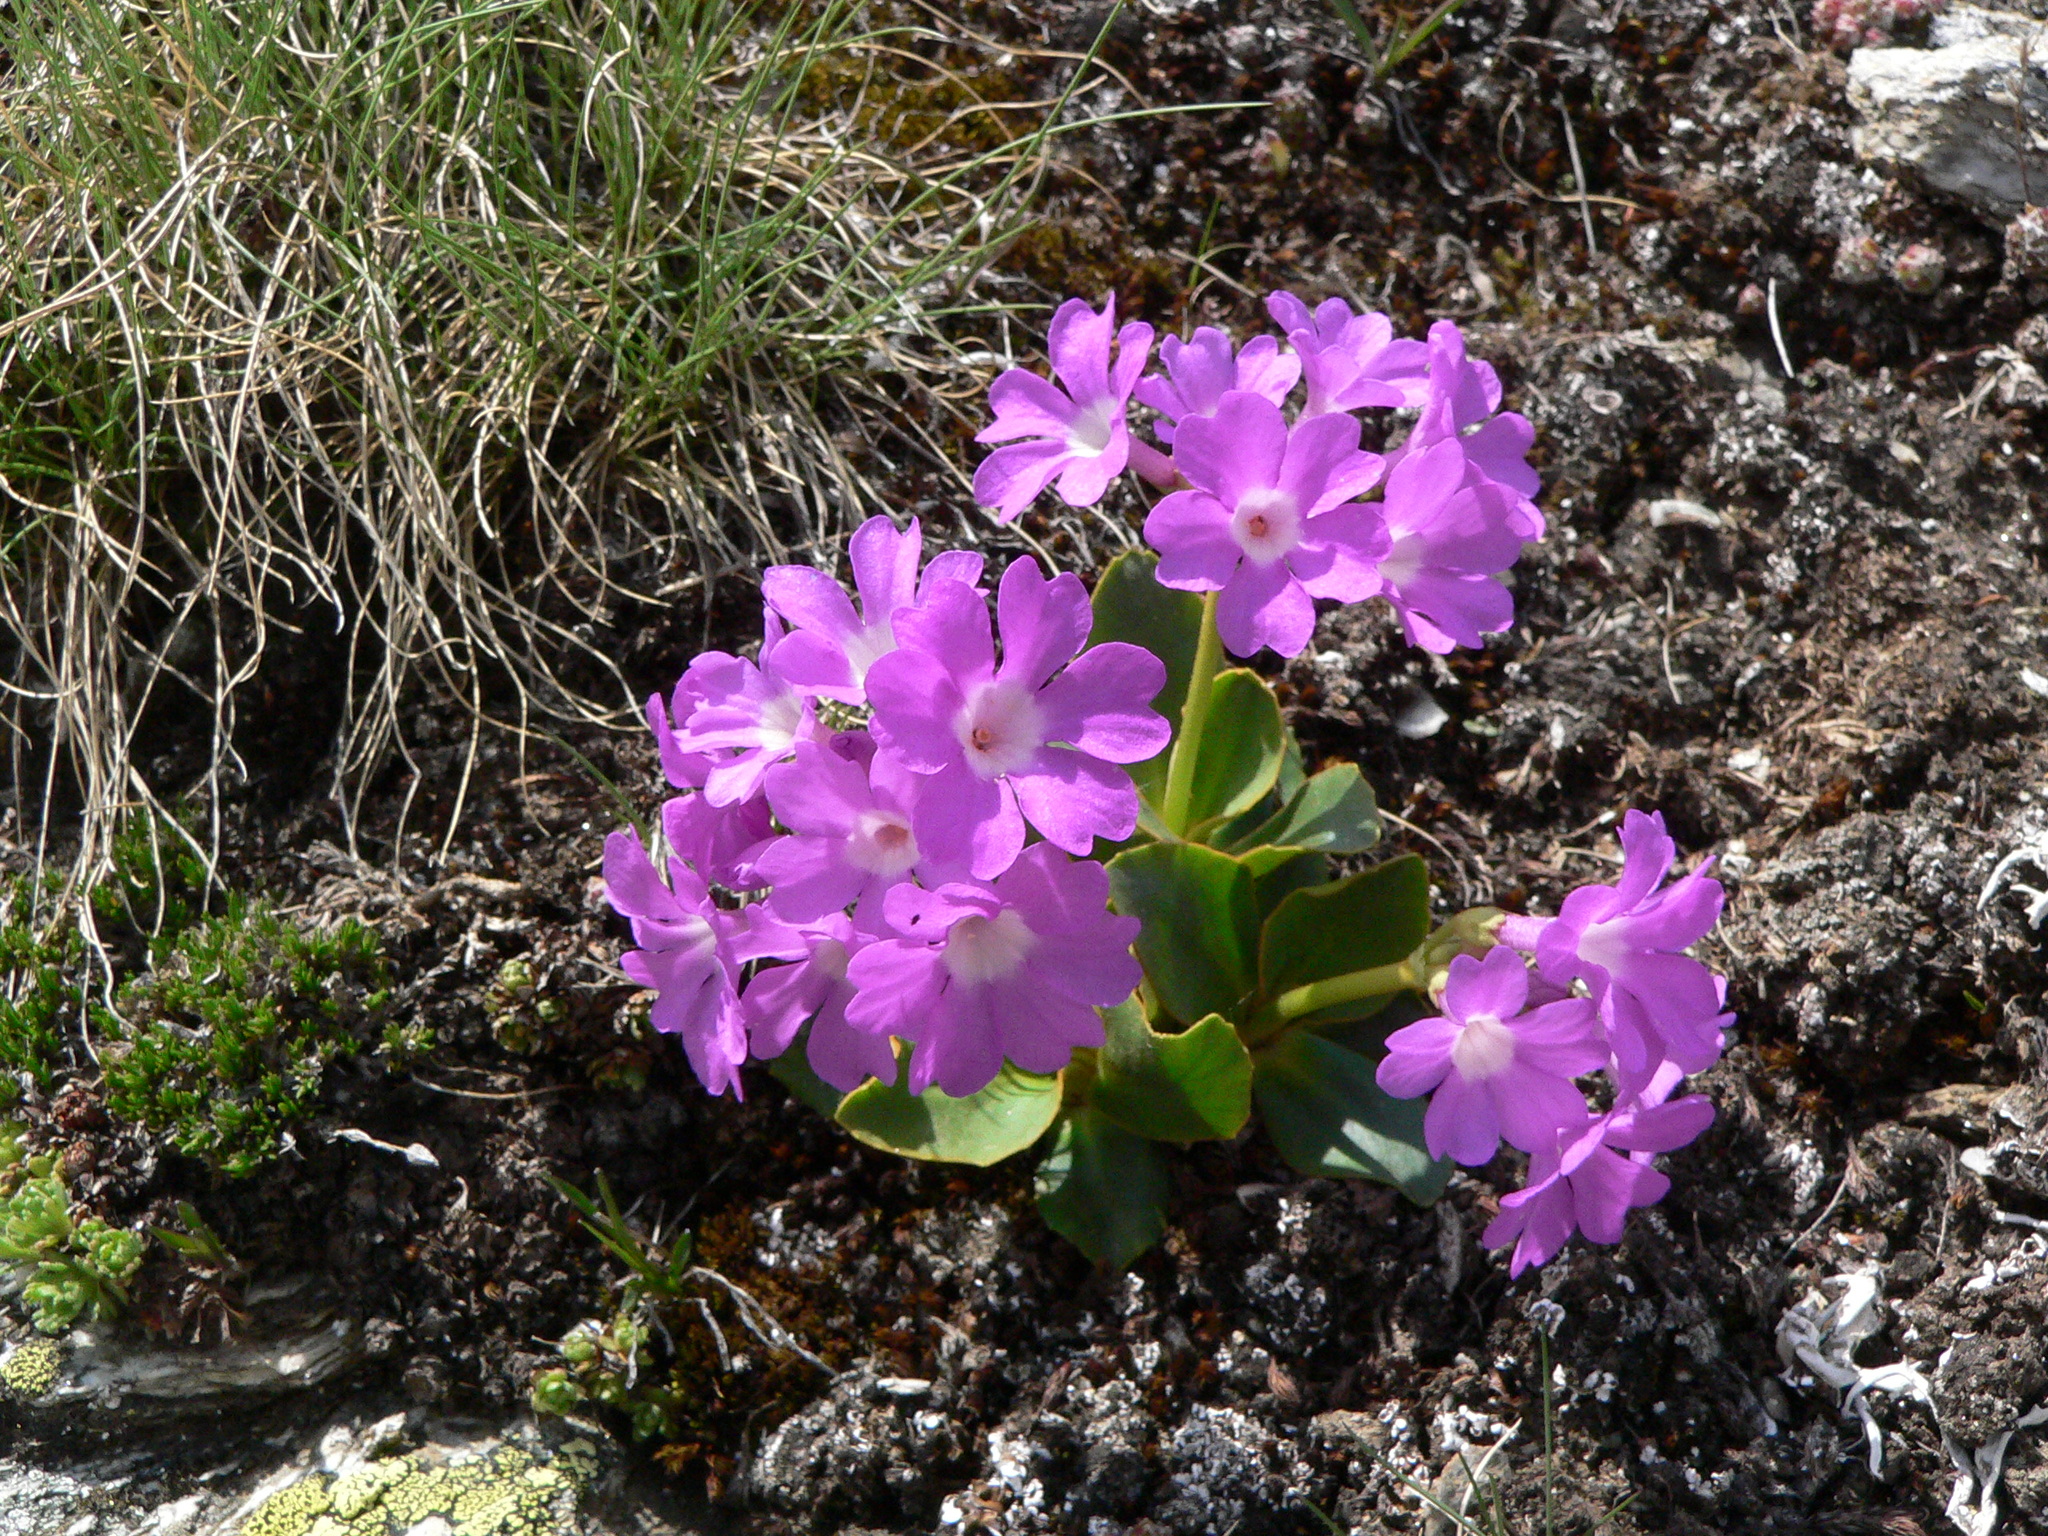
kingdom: Plantae
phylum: Tracheophyta
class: Magnoliopsida
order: Ericales
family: Primulaceae
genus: Primula
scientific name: Primula pedemontana
